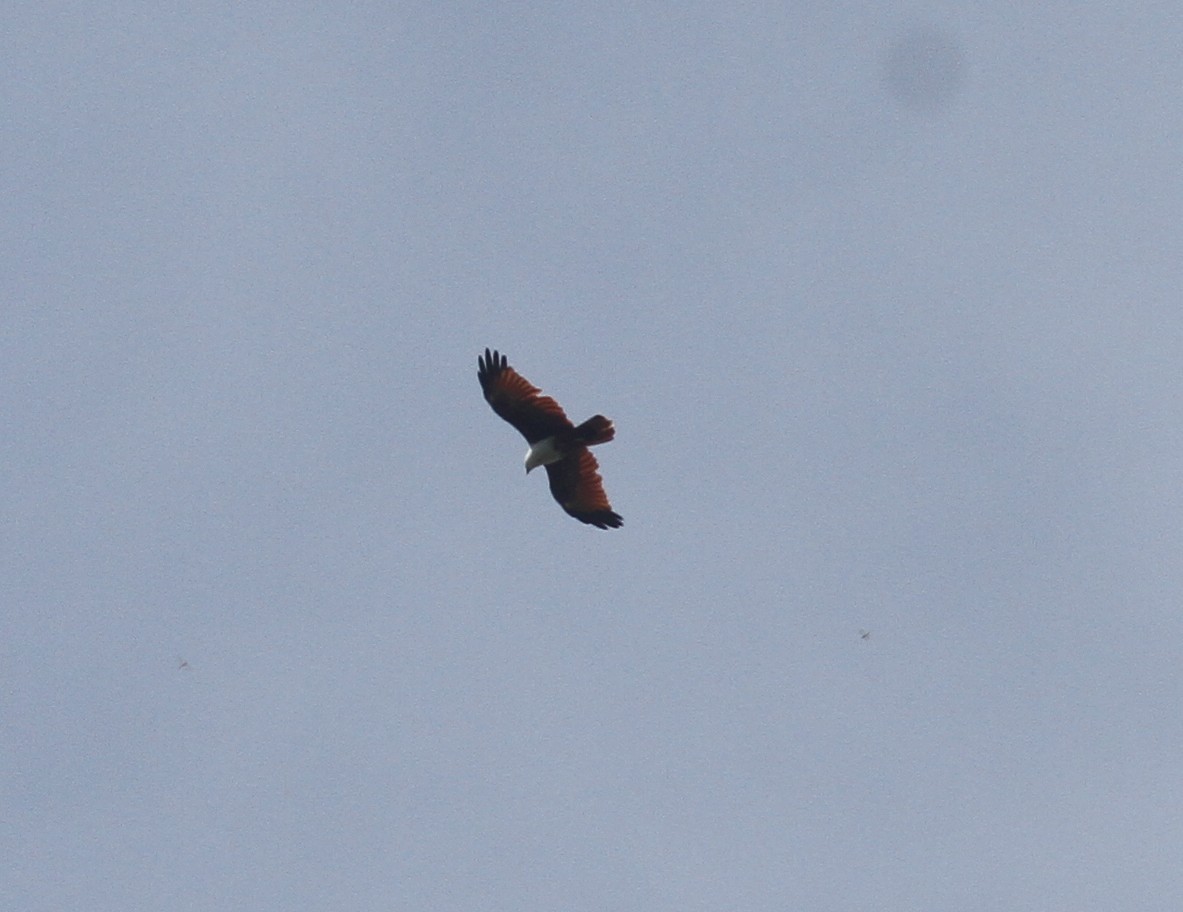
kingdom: Animalia
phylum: Chordata
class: Aves
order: Accipitriformes
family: Accipitridae
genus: Haliastur
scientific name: Haliastur indus
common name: Brahminy kite
